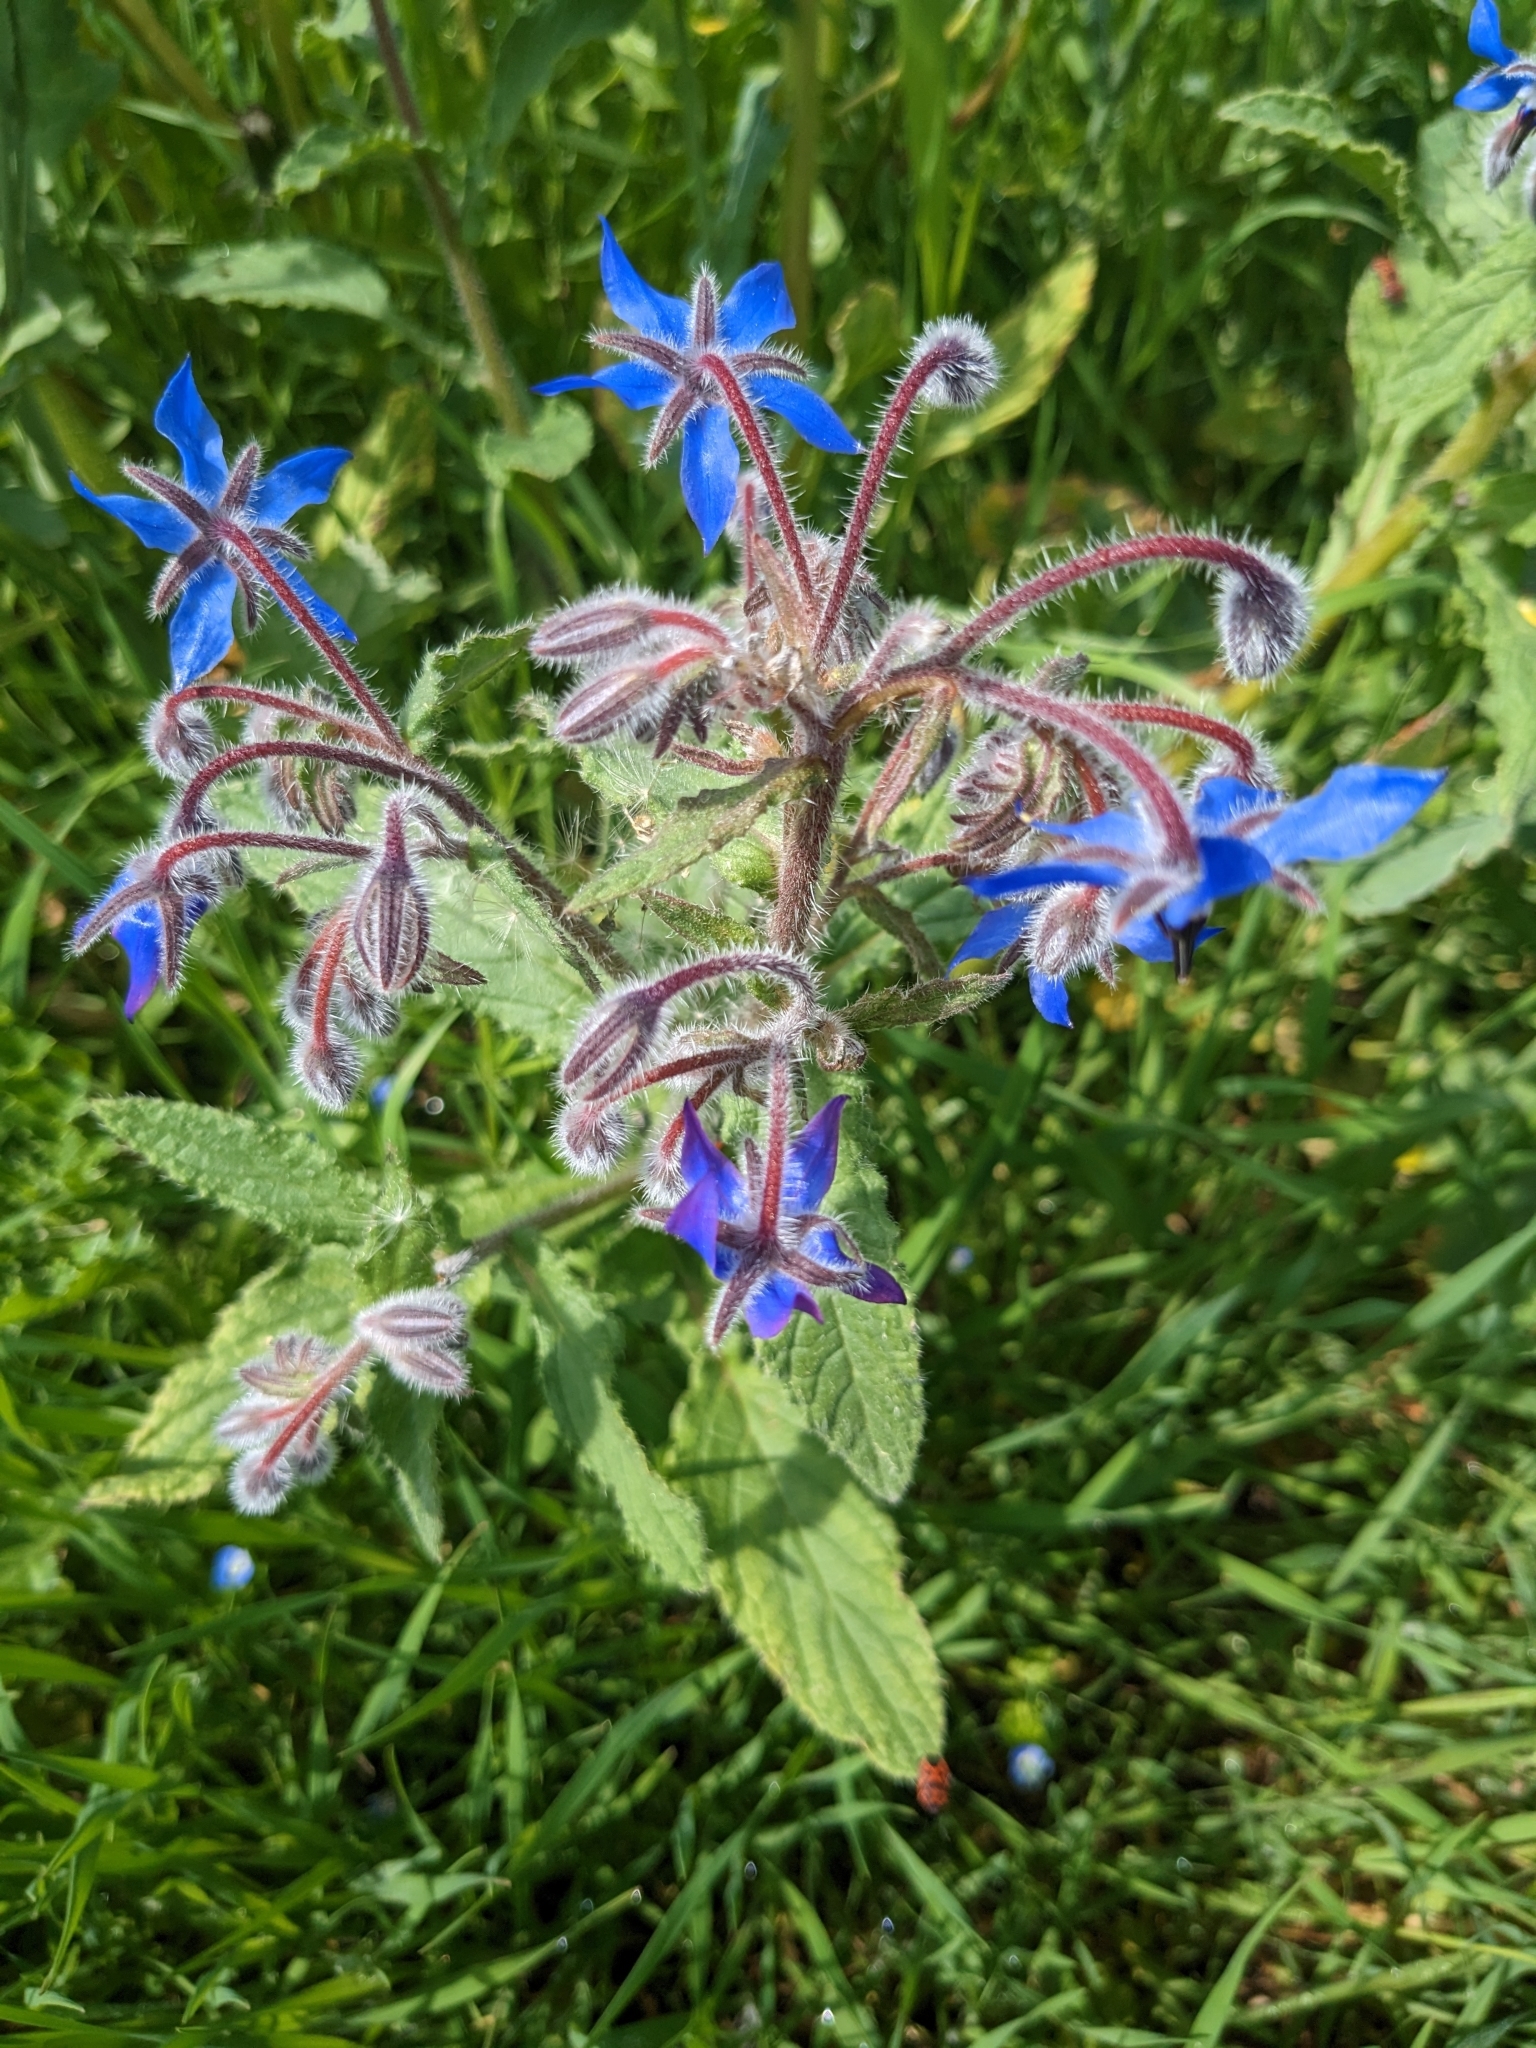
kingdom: Plantae
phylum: Tracheophyta
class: Magnoliopsida
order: Boraginales
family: Boraginaceae
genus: Borago
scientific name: Borago officinalis
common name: Borage
